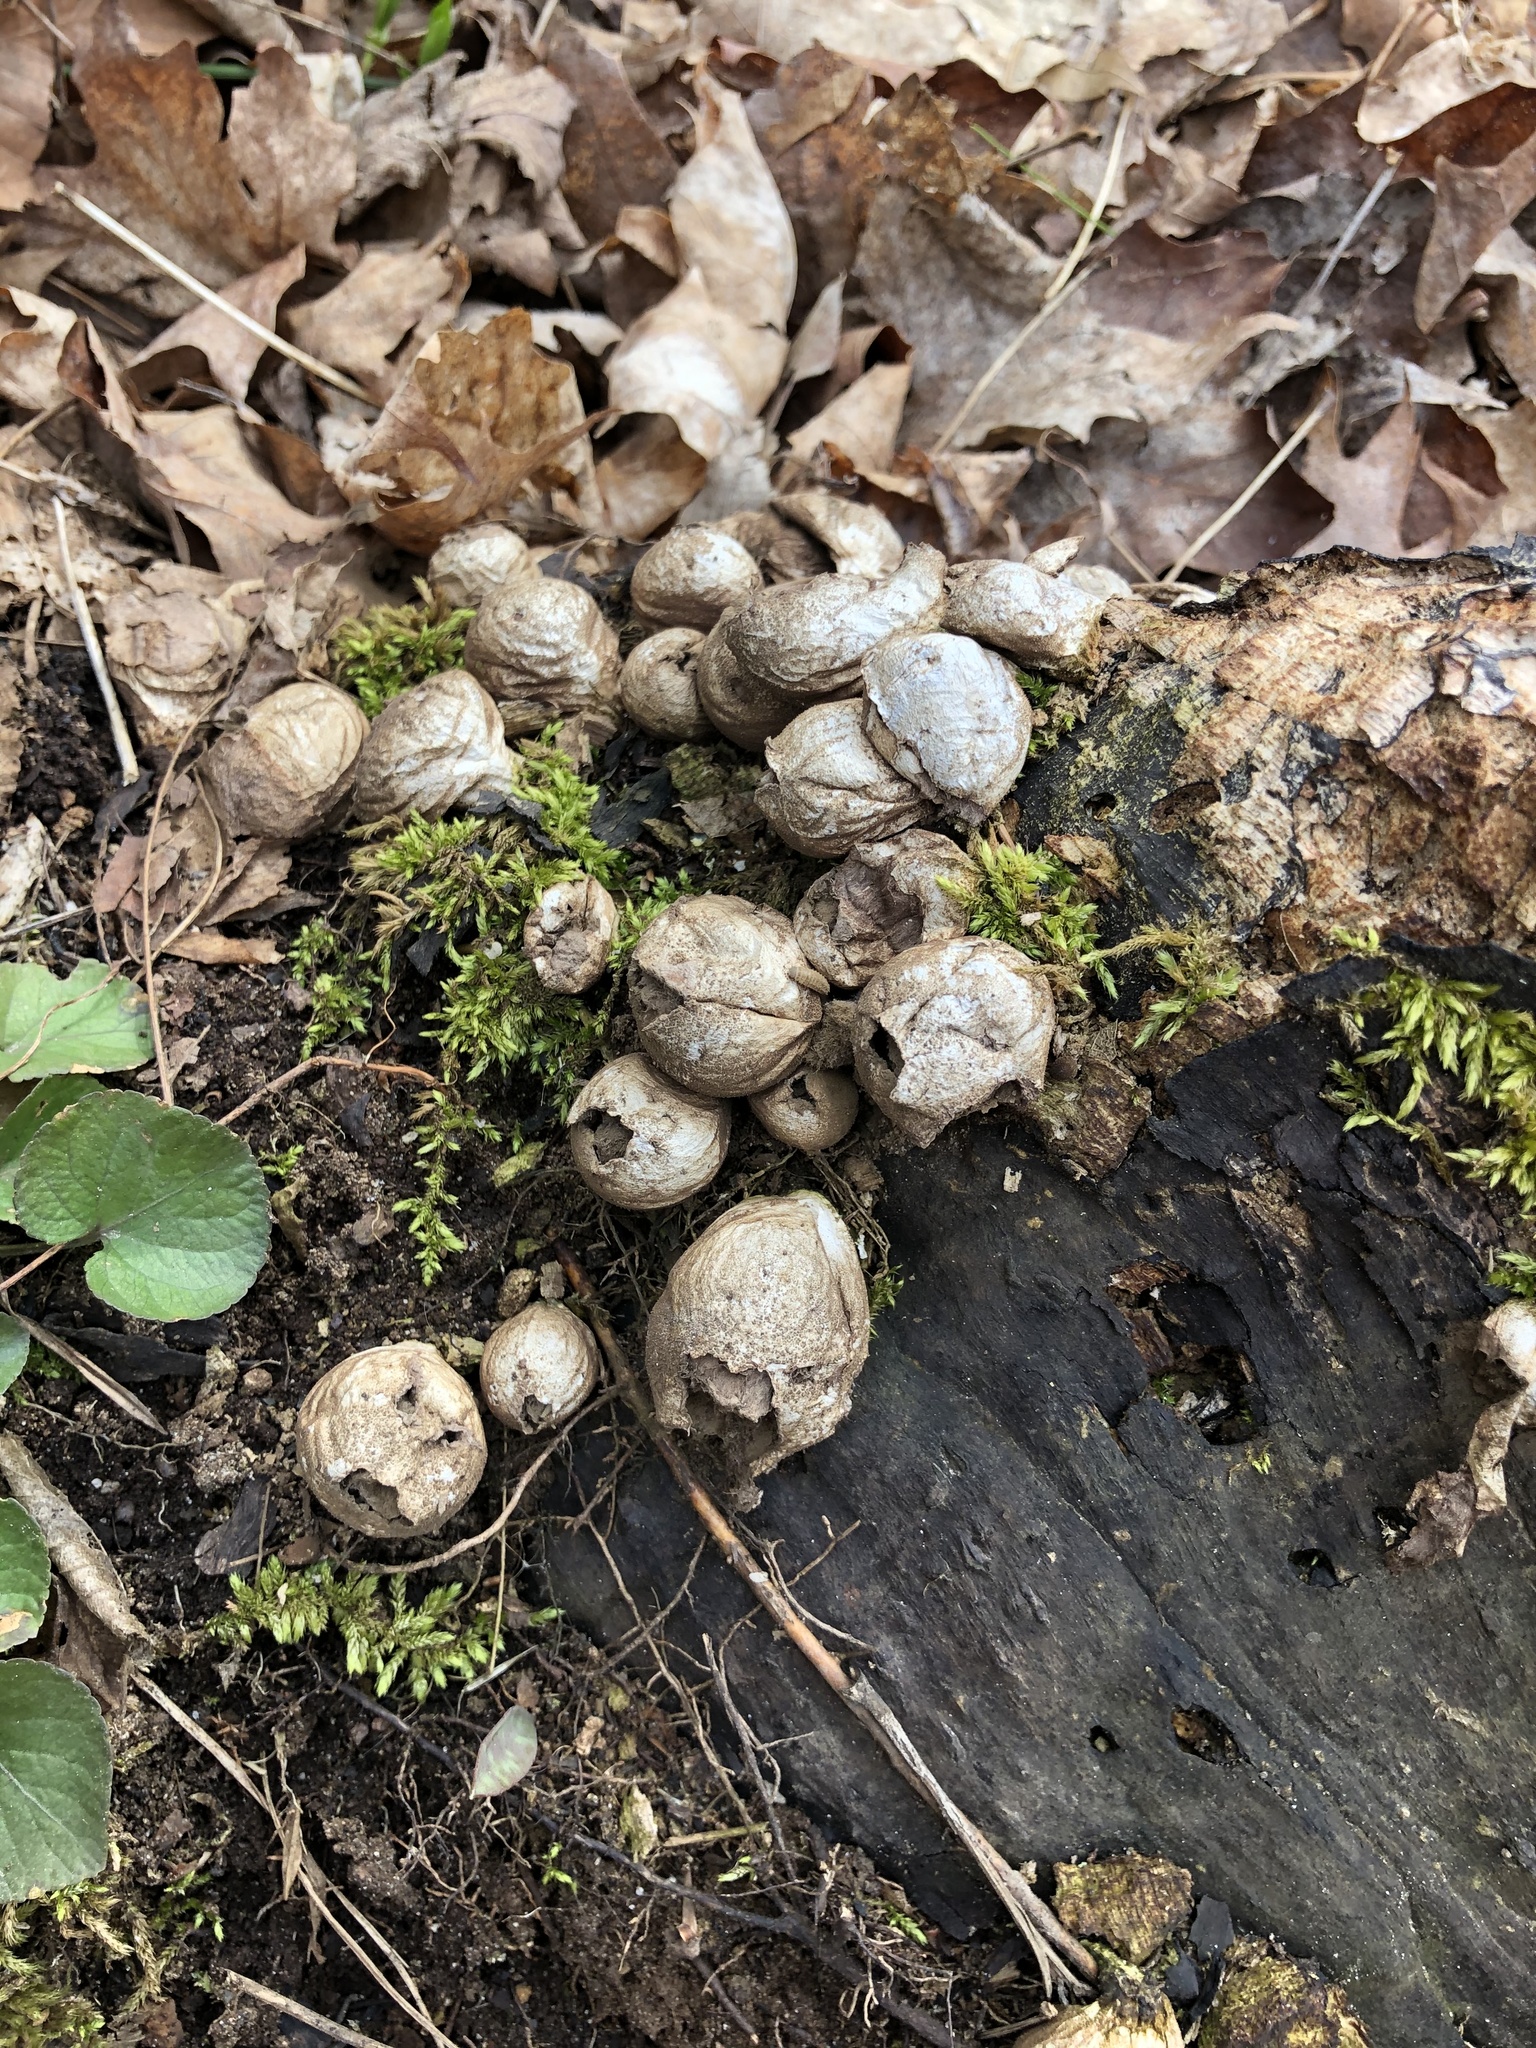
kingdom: Fungi
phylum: Basidiomycota
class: Agaricomycetes
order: Agaricales
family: Lycoperdaceae
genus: Apioperdon
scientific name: Apioperdon pyriforme
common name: Pear-shaped puffball
